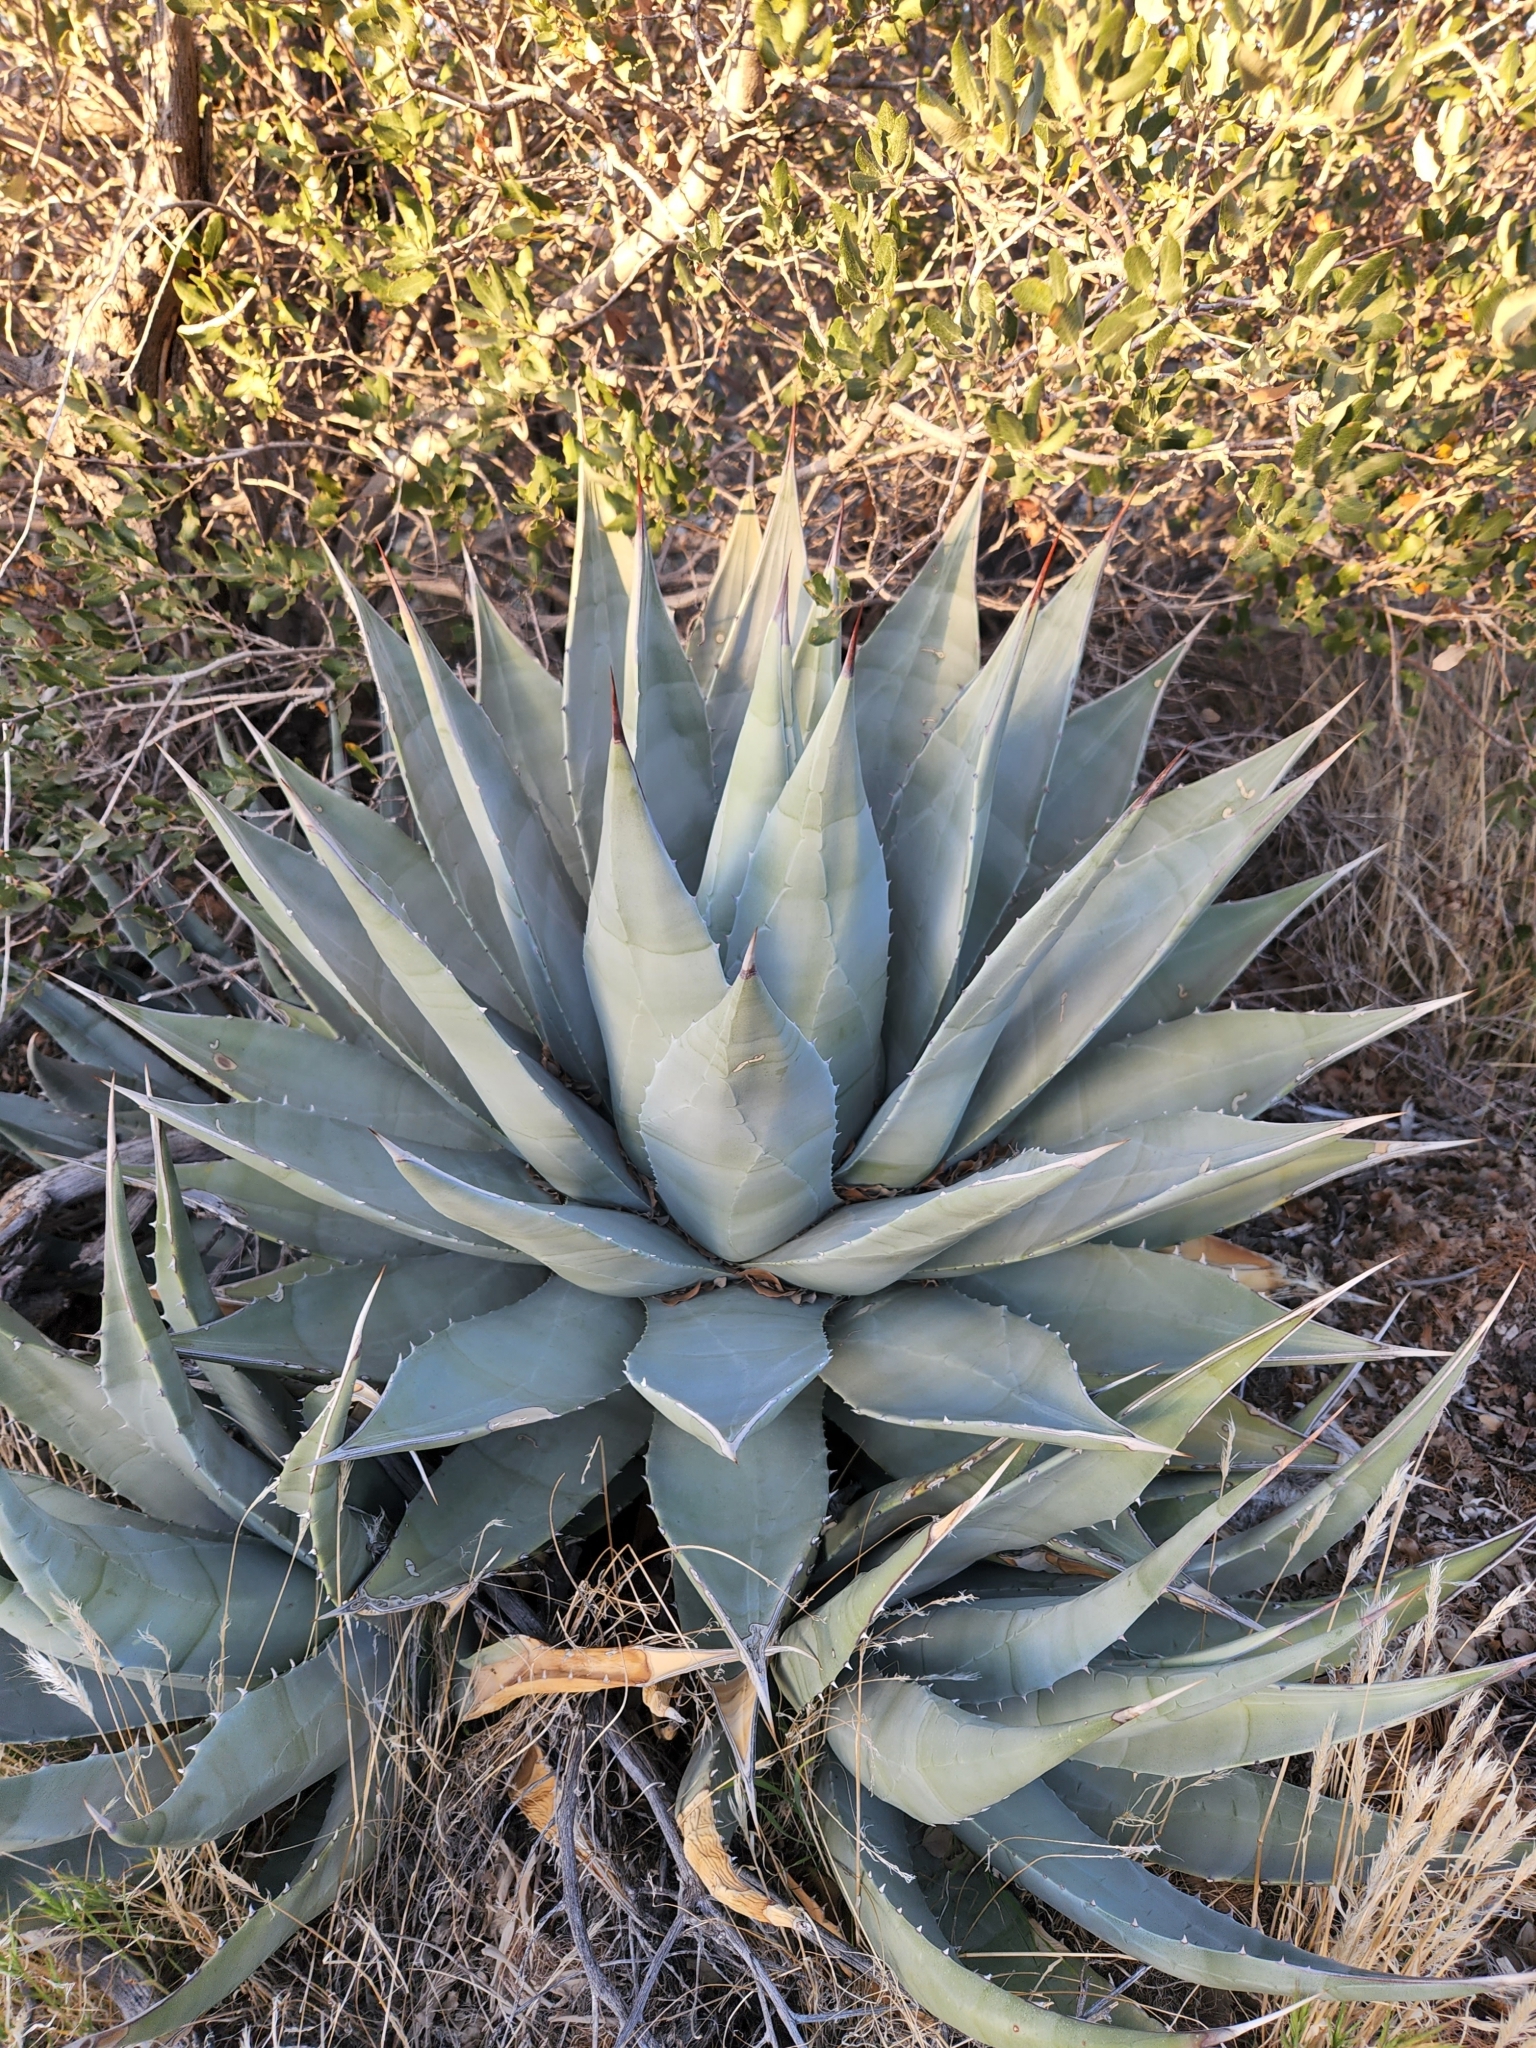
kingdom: Plantae
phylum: Tracheophyta
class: Liliopsida
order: Asparagales
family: Asparagaceae
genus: Agave
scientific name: Agave deserti
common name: Desert agave
